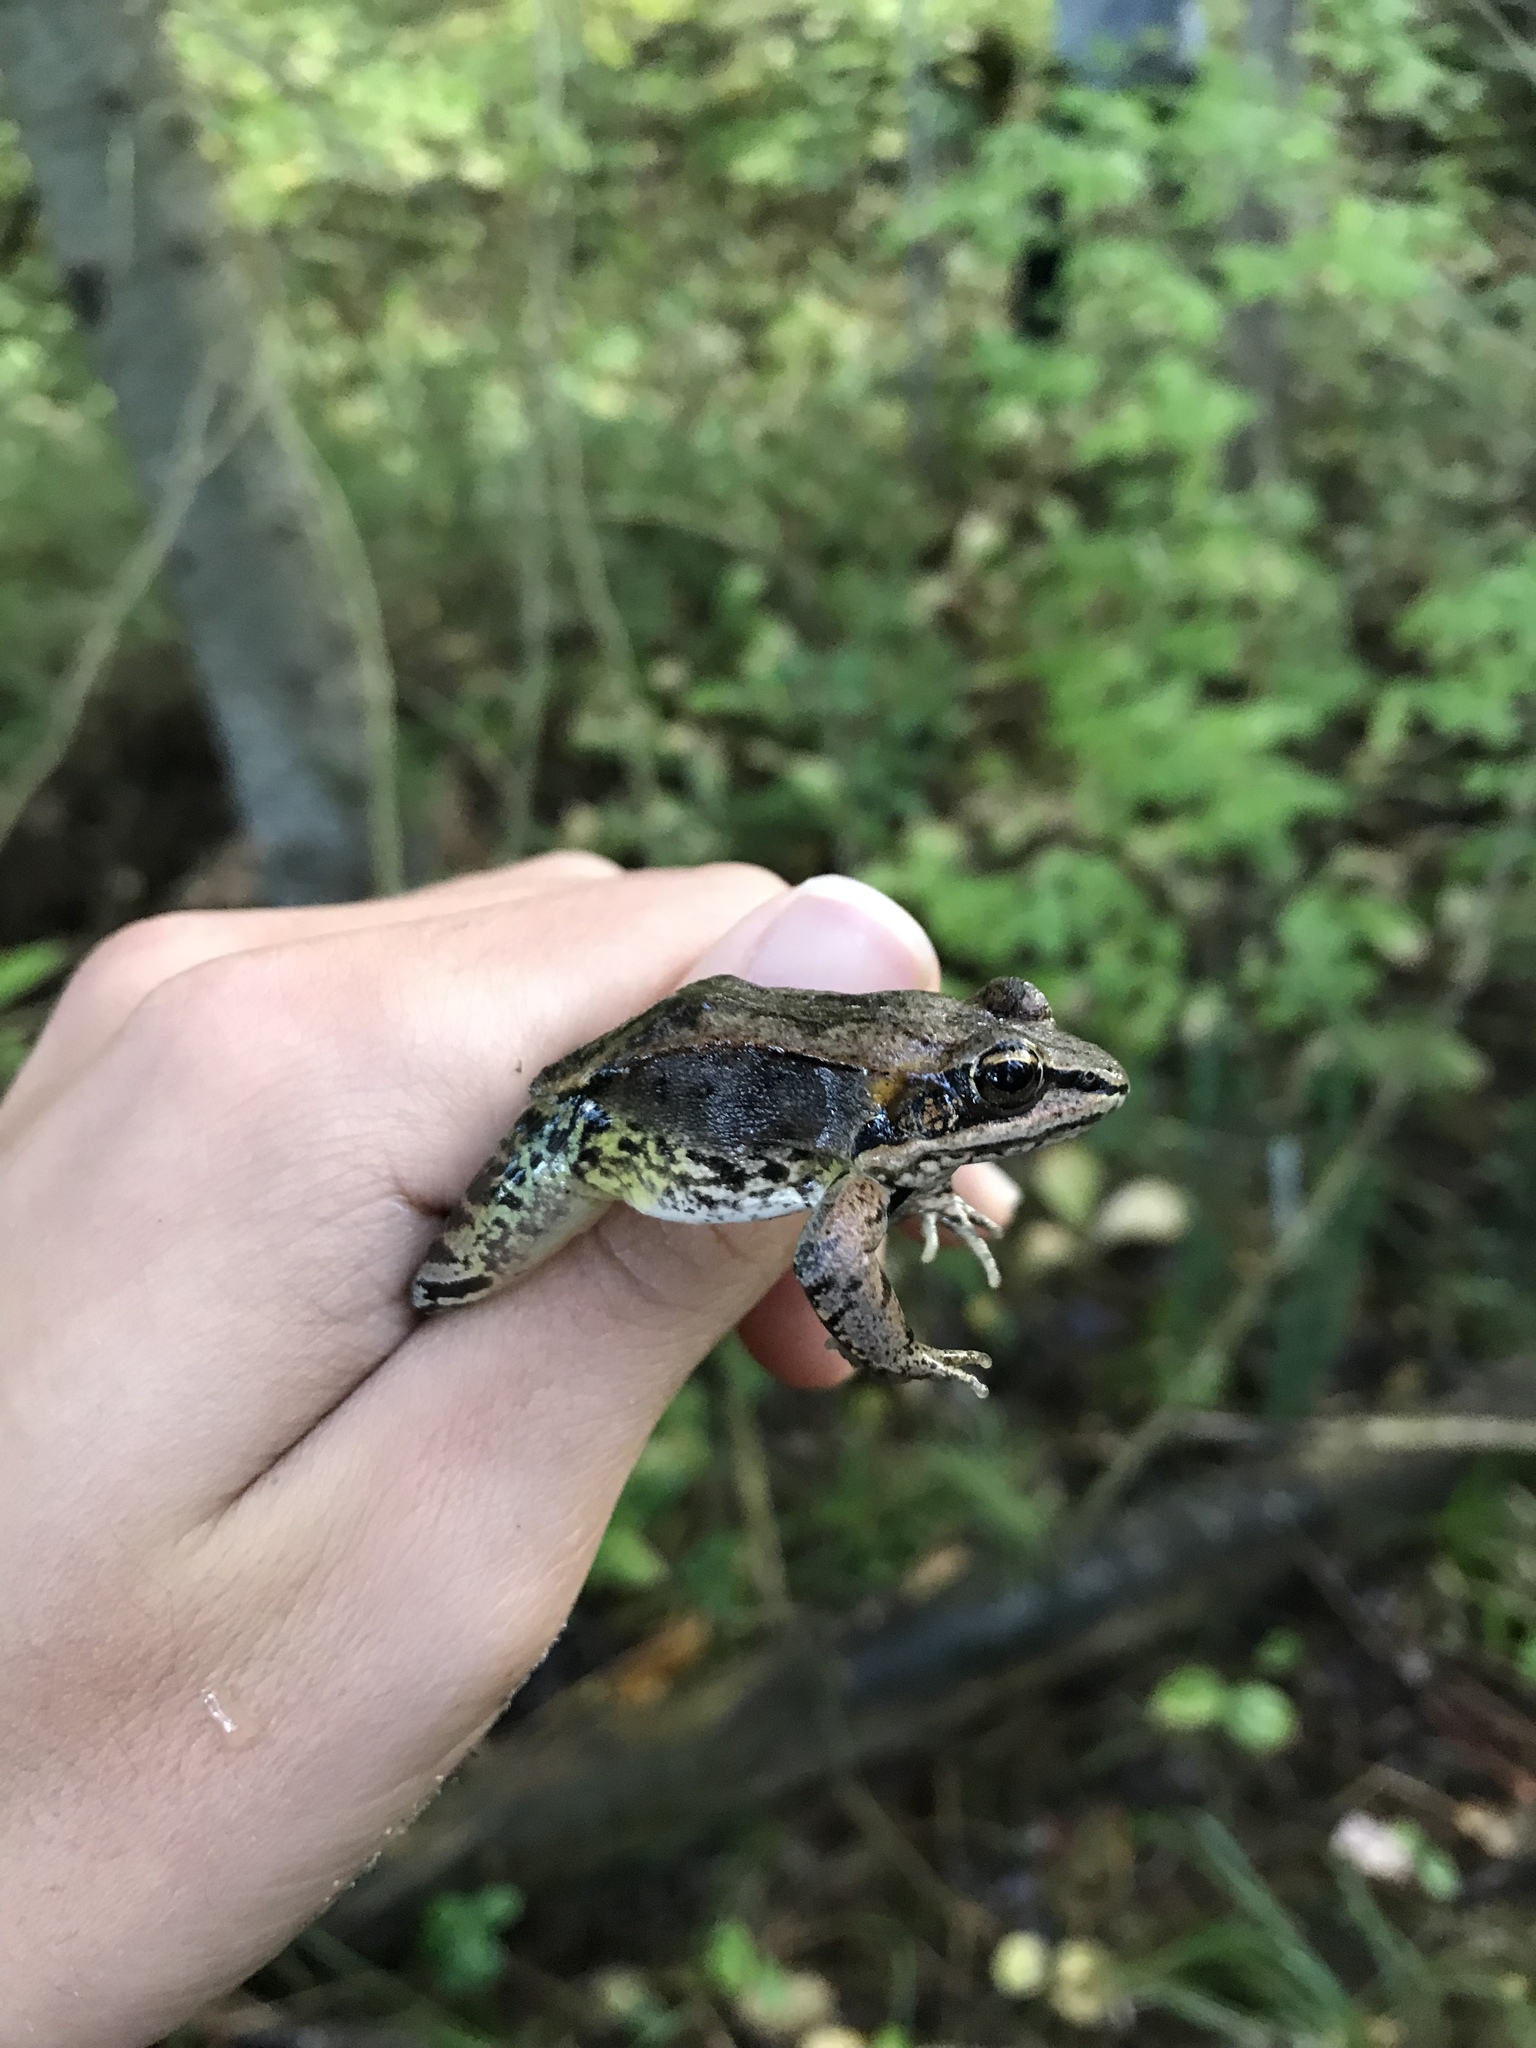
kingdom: Animalia
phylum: Chordata
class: Amphibia
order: Anura
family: Ranidae
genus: Lithobates
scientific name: Lithobates sylvaticus
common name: Wood frog
